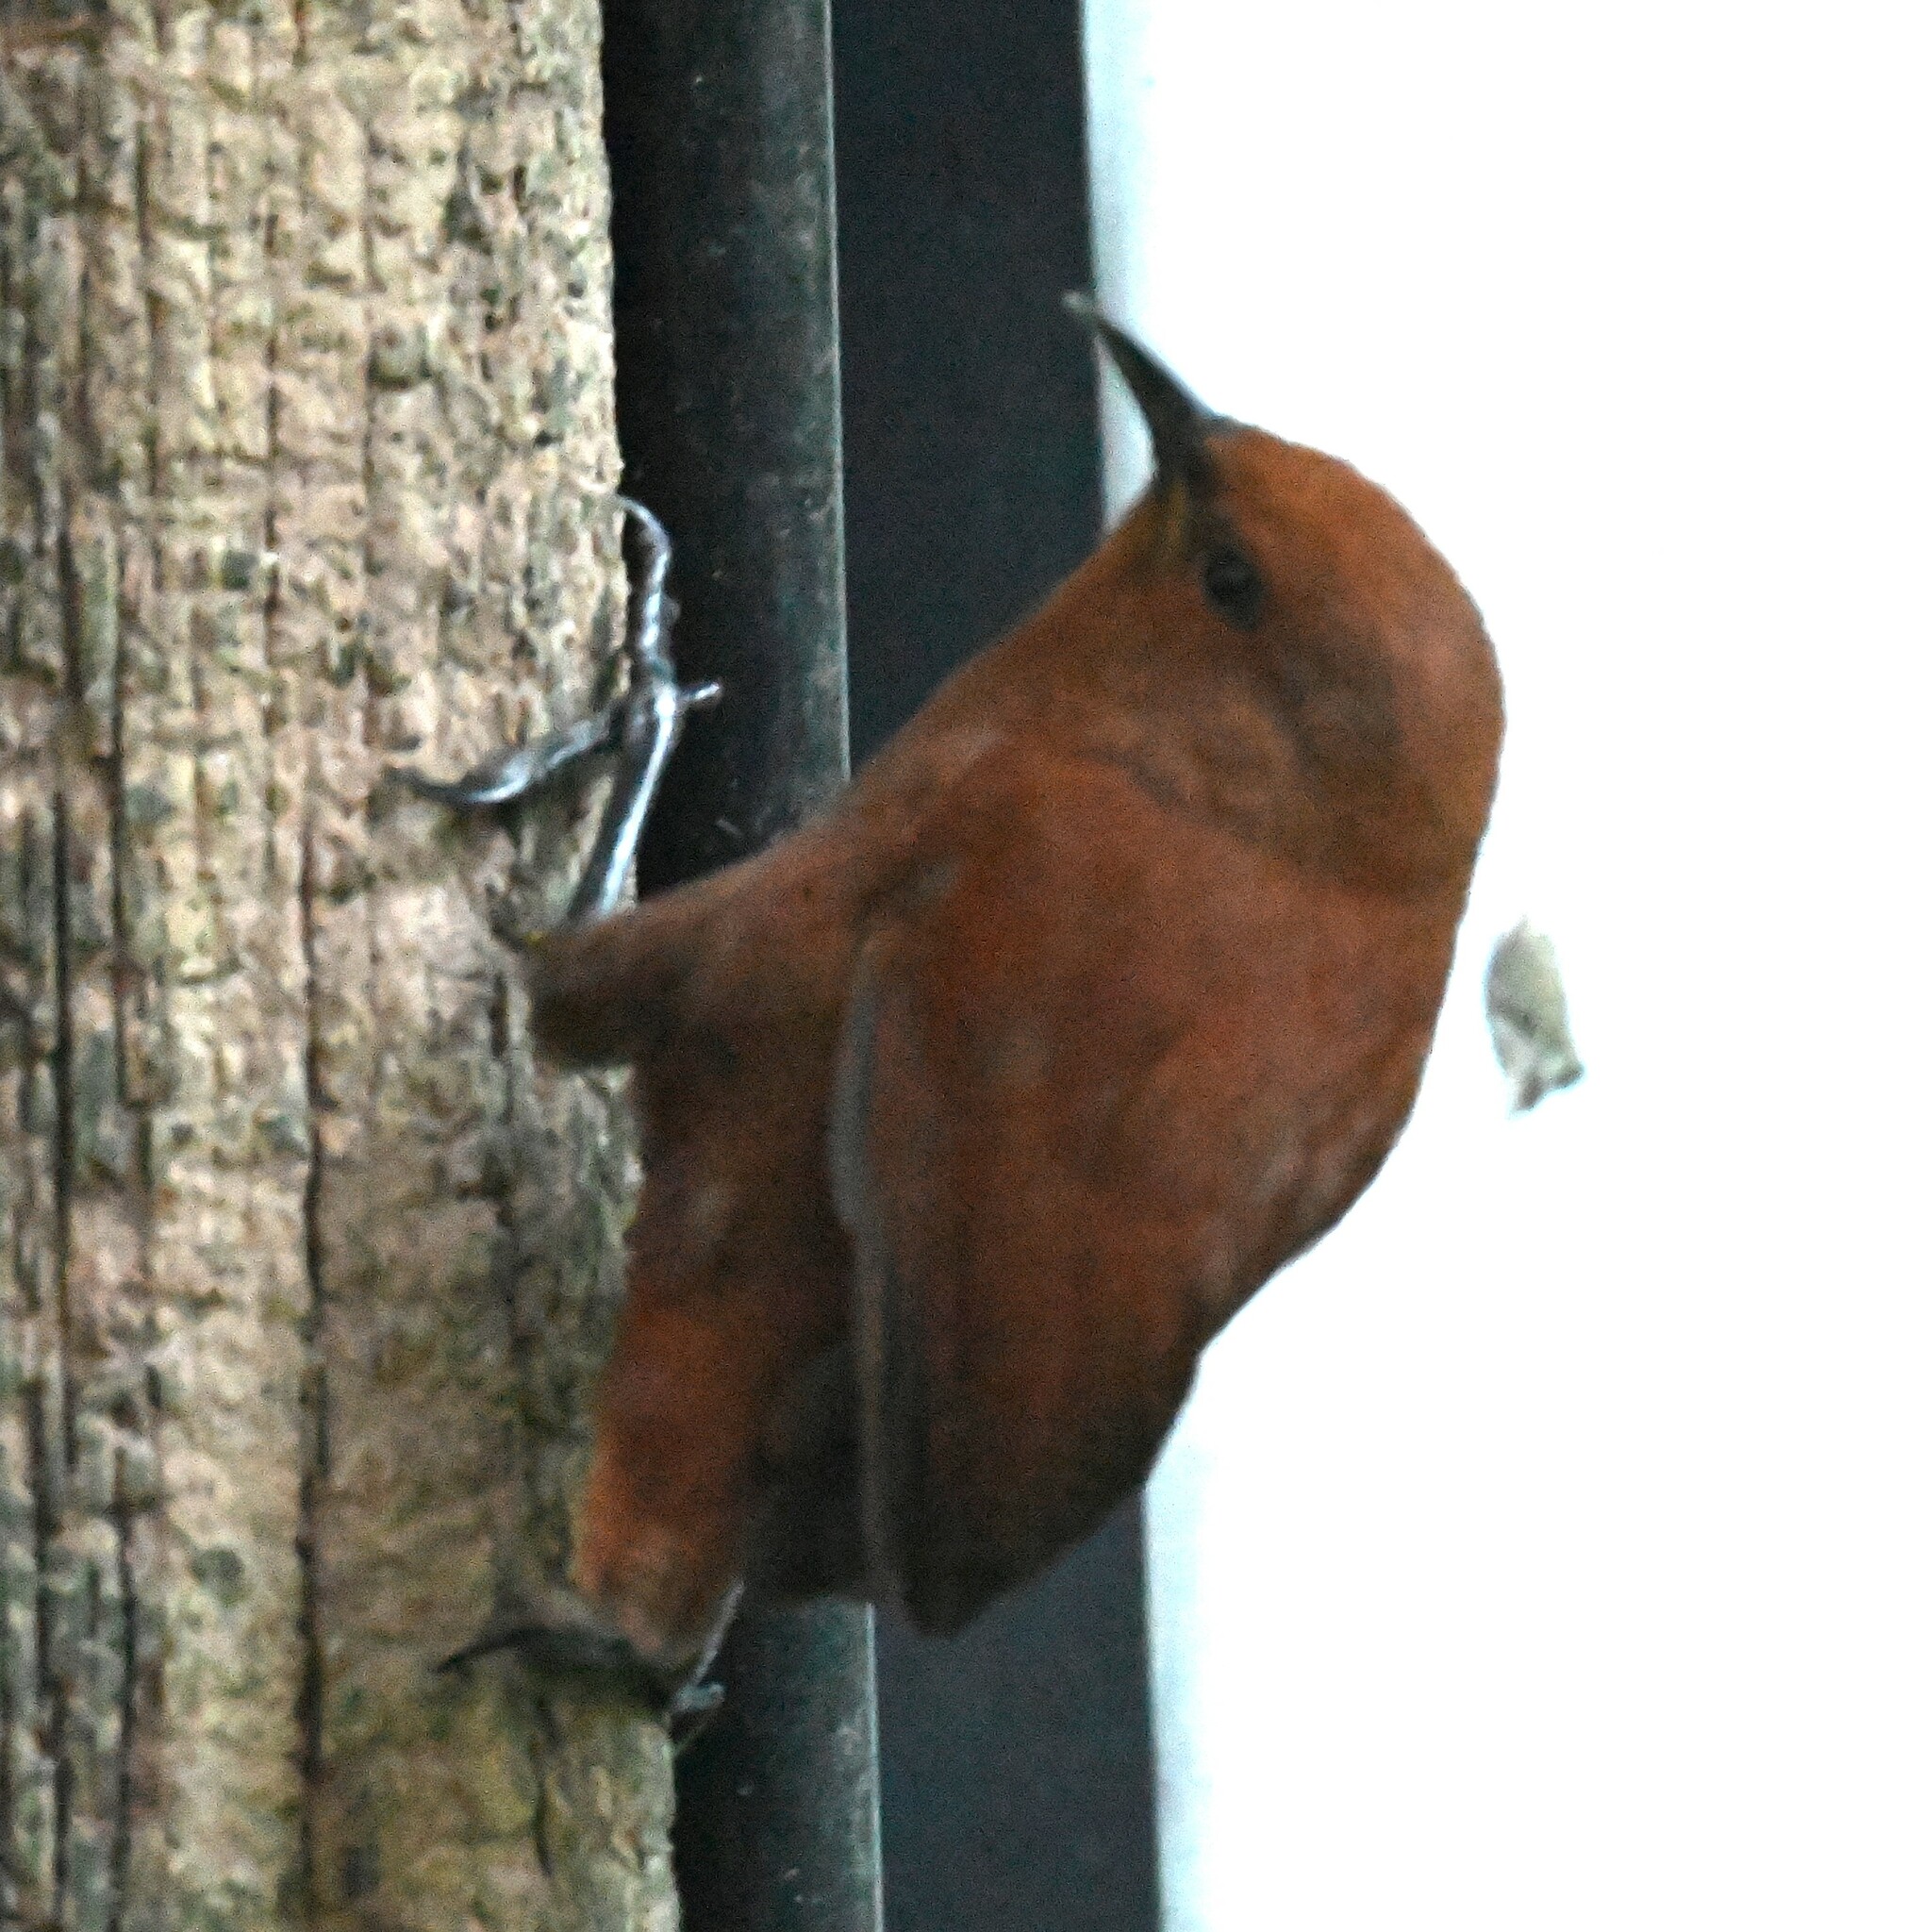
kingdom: Animalia
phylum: Chordata
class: Aves
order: Passeriformes
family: Troglodytidae
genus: Cinnycerthia
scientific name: Cinnycerthia unirufa
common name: Rufous wren
